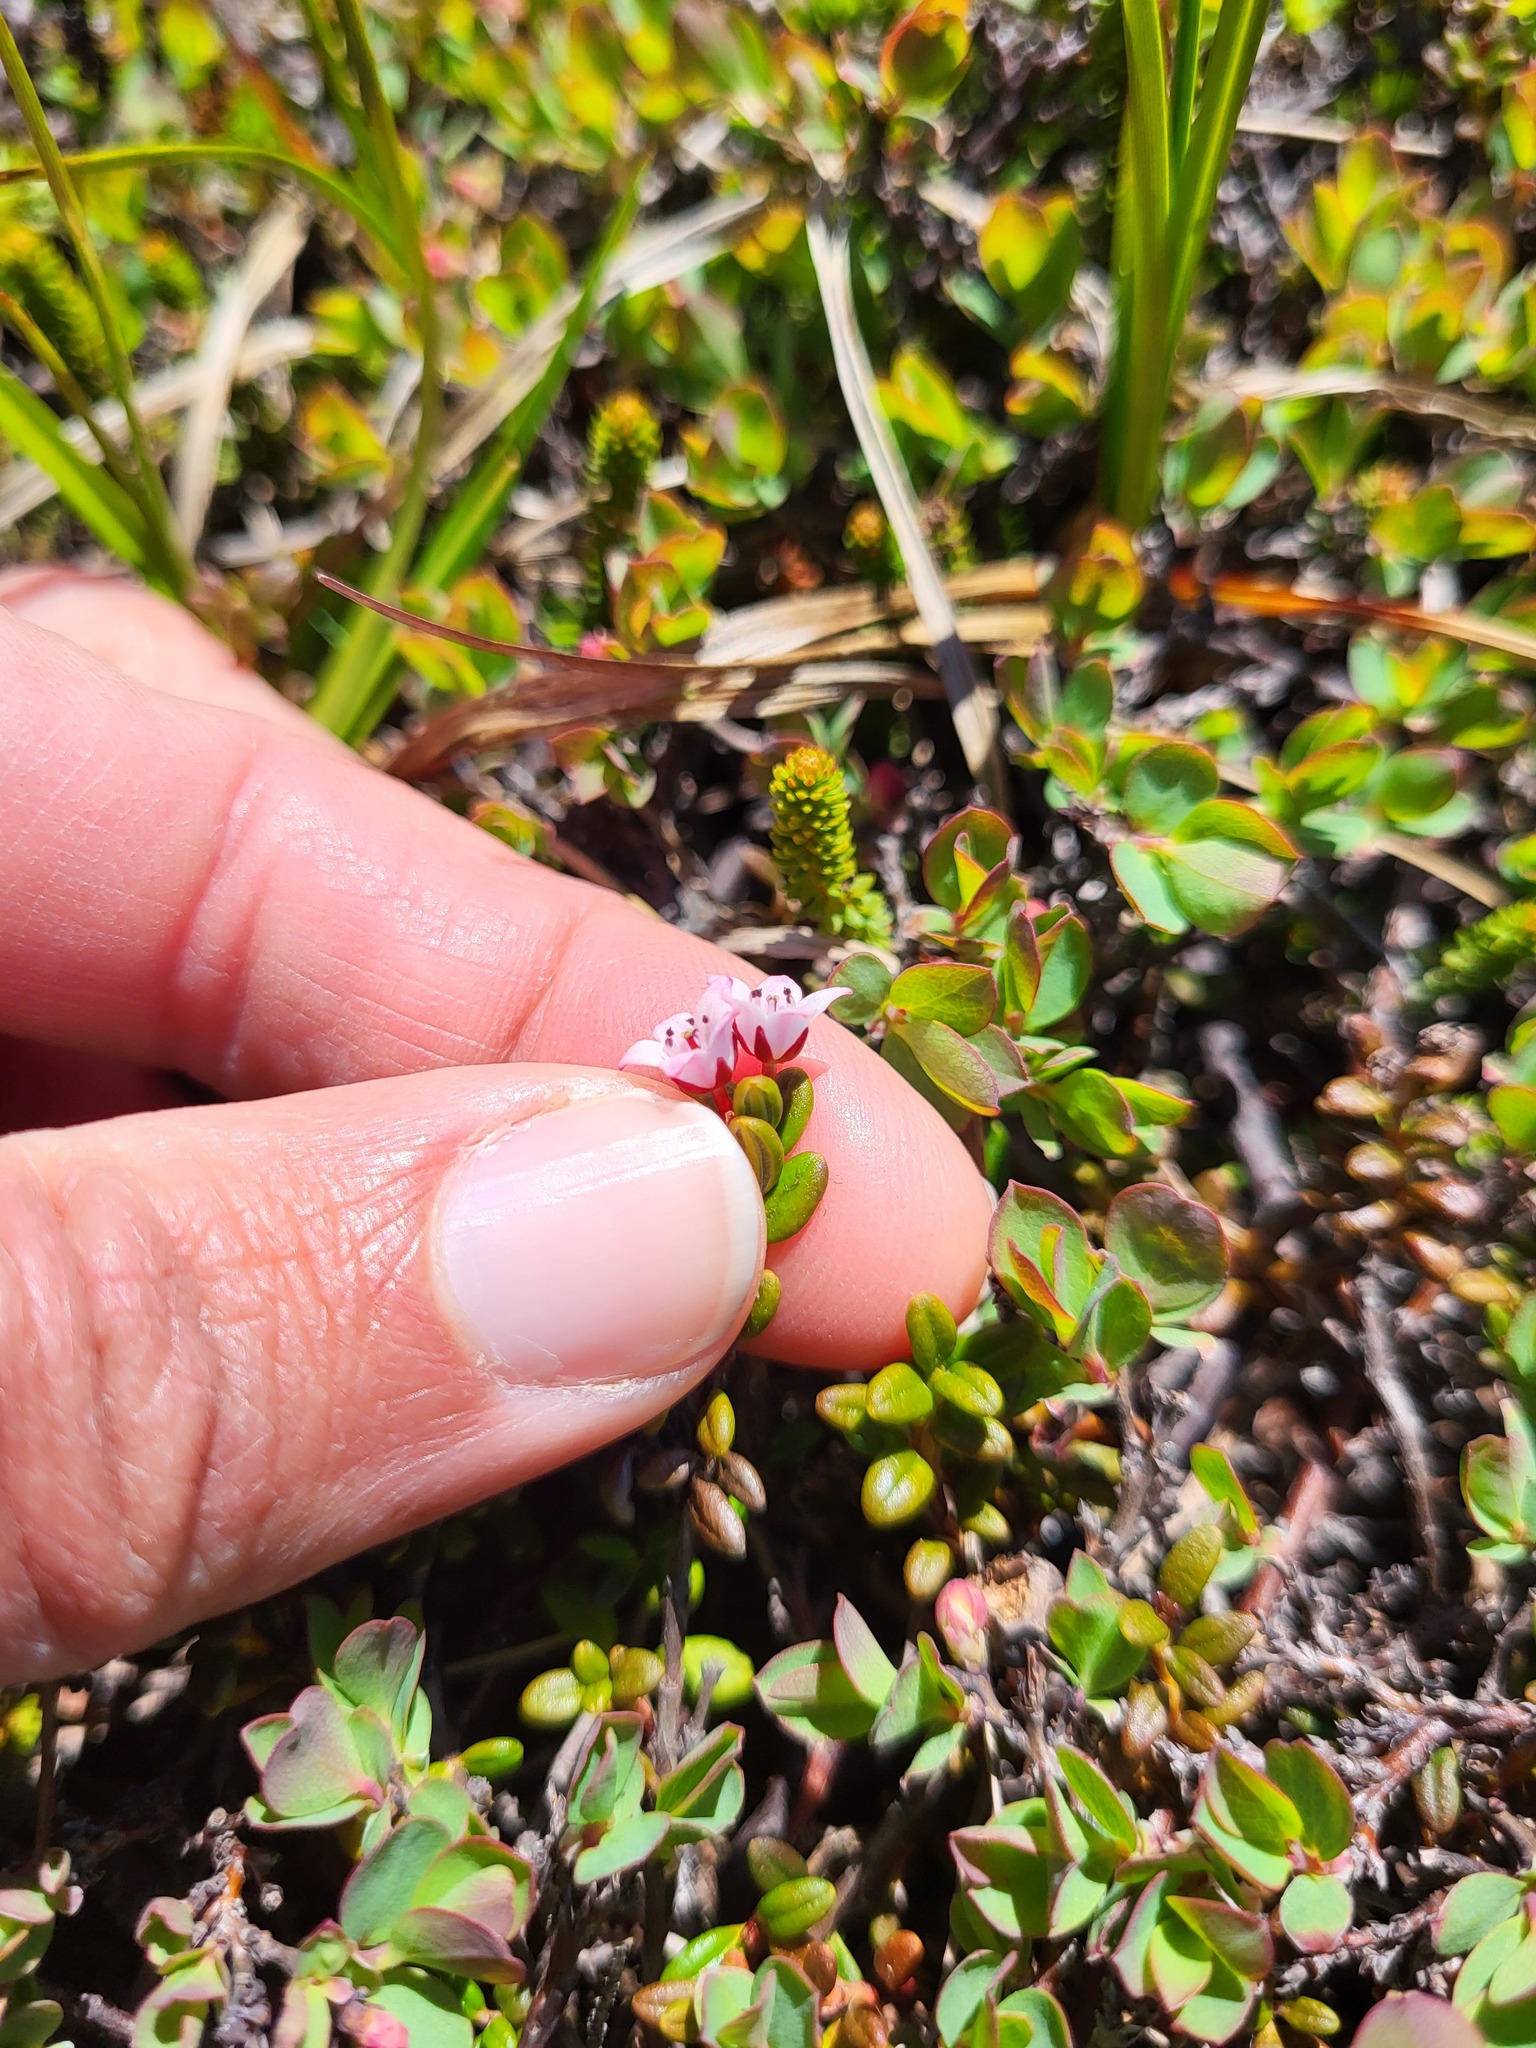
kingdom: Plantae
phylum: Tracheophyta
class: Magnoliopsida
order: Ericales
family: Ericaceae
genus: Kalmia
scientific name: Kalmia procumbens
